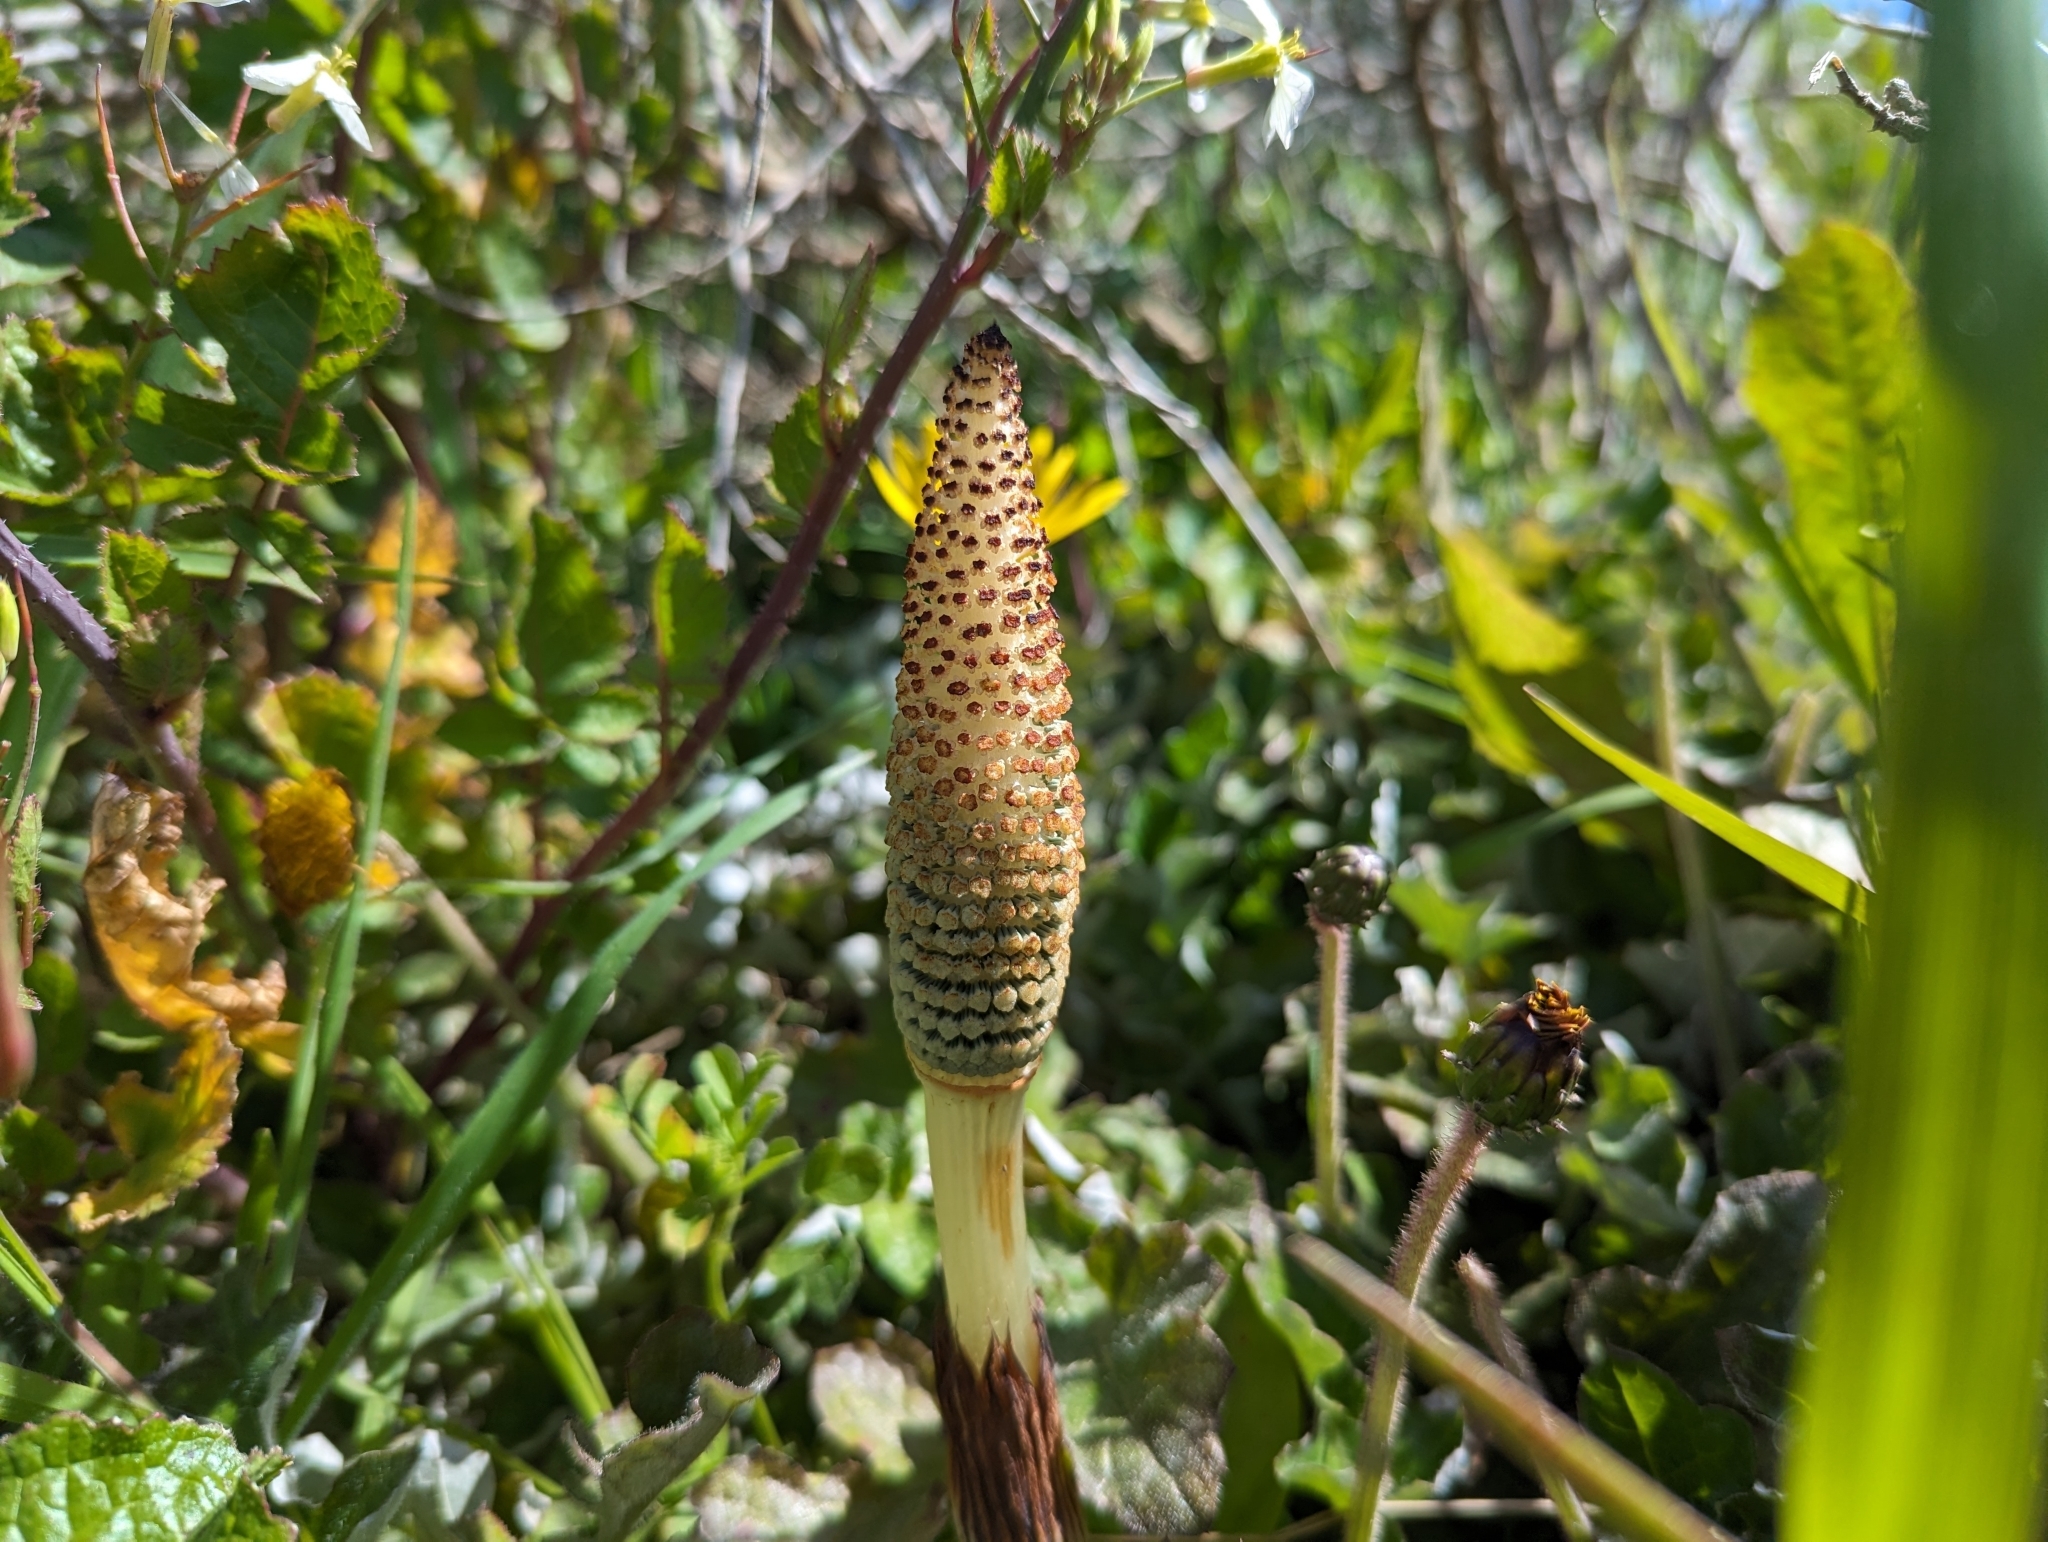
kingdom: Plantae
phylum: Tracheophyta
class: Polypodiopsida
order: Equisetales
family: Equisetaceae
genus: Equisetum
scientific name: Equisetum telmateia
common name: Great horsetail
